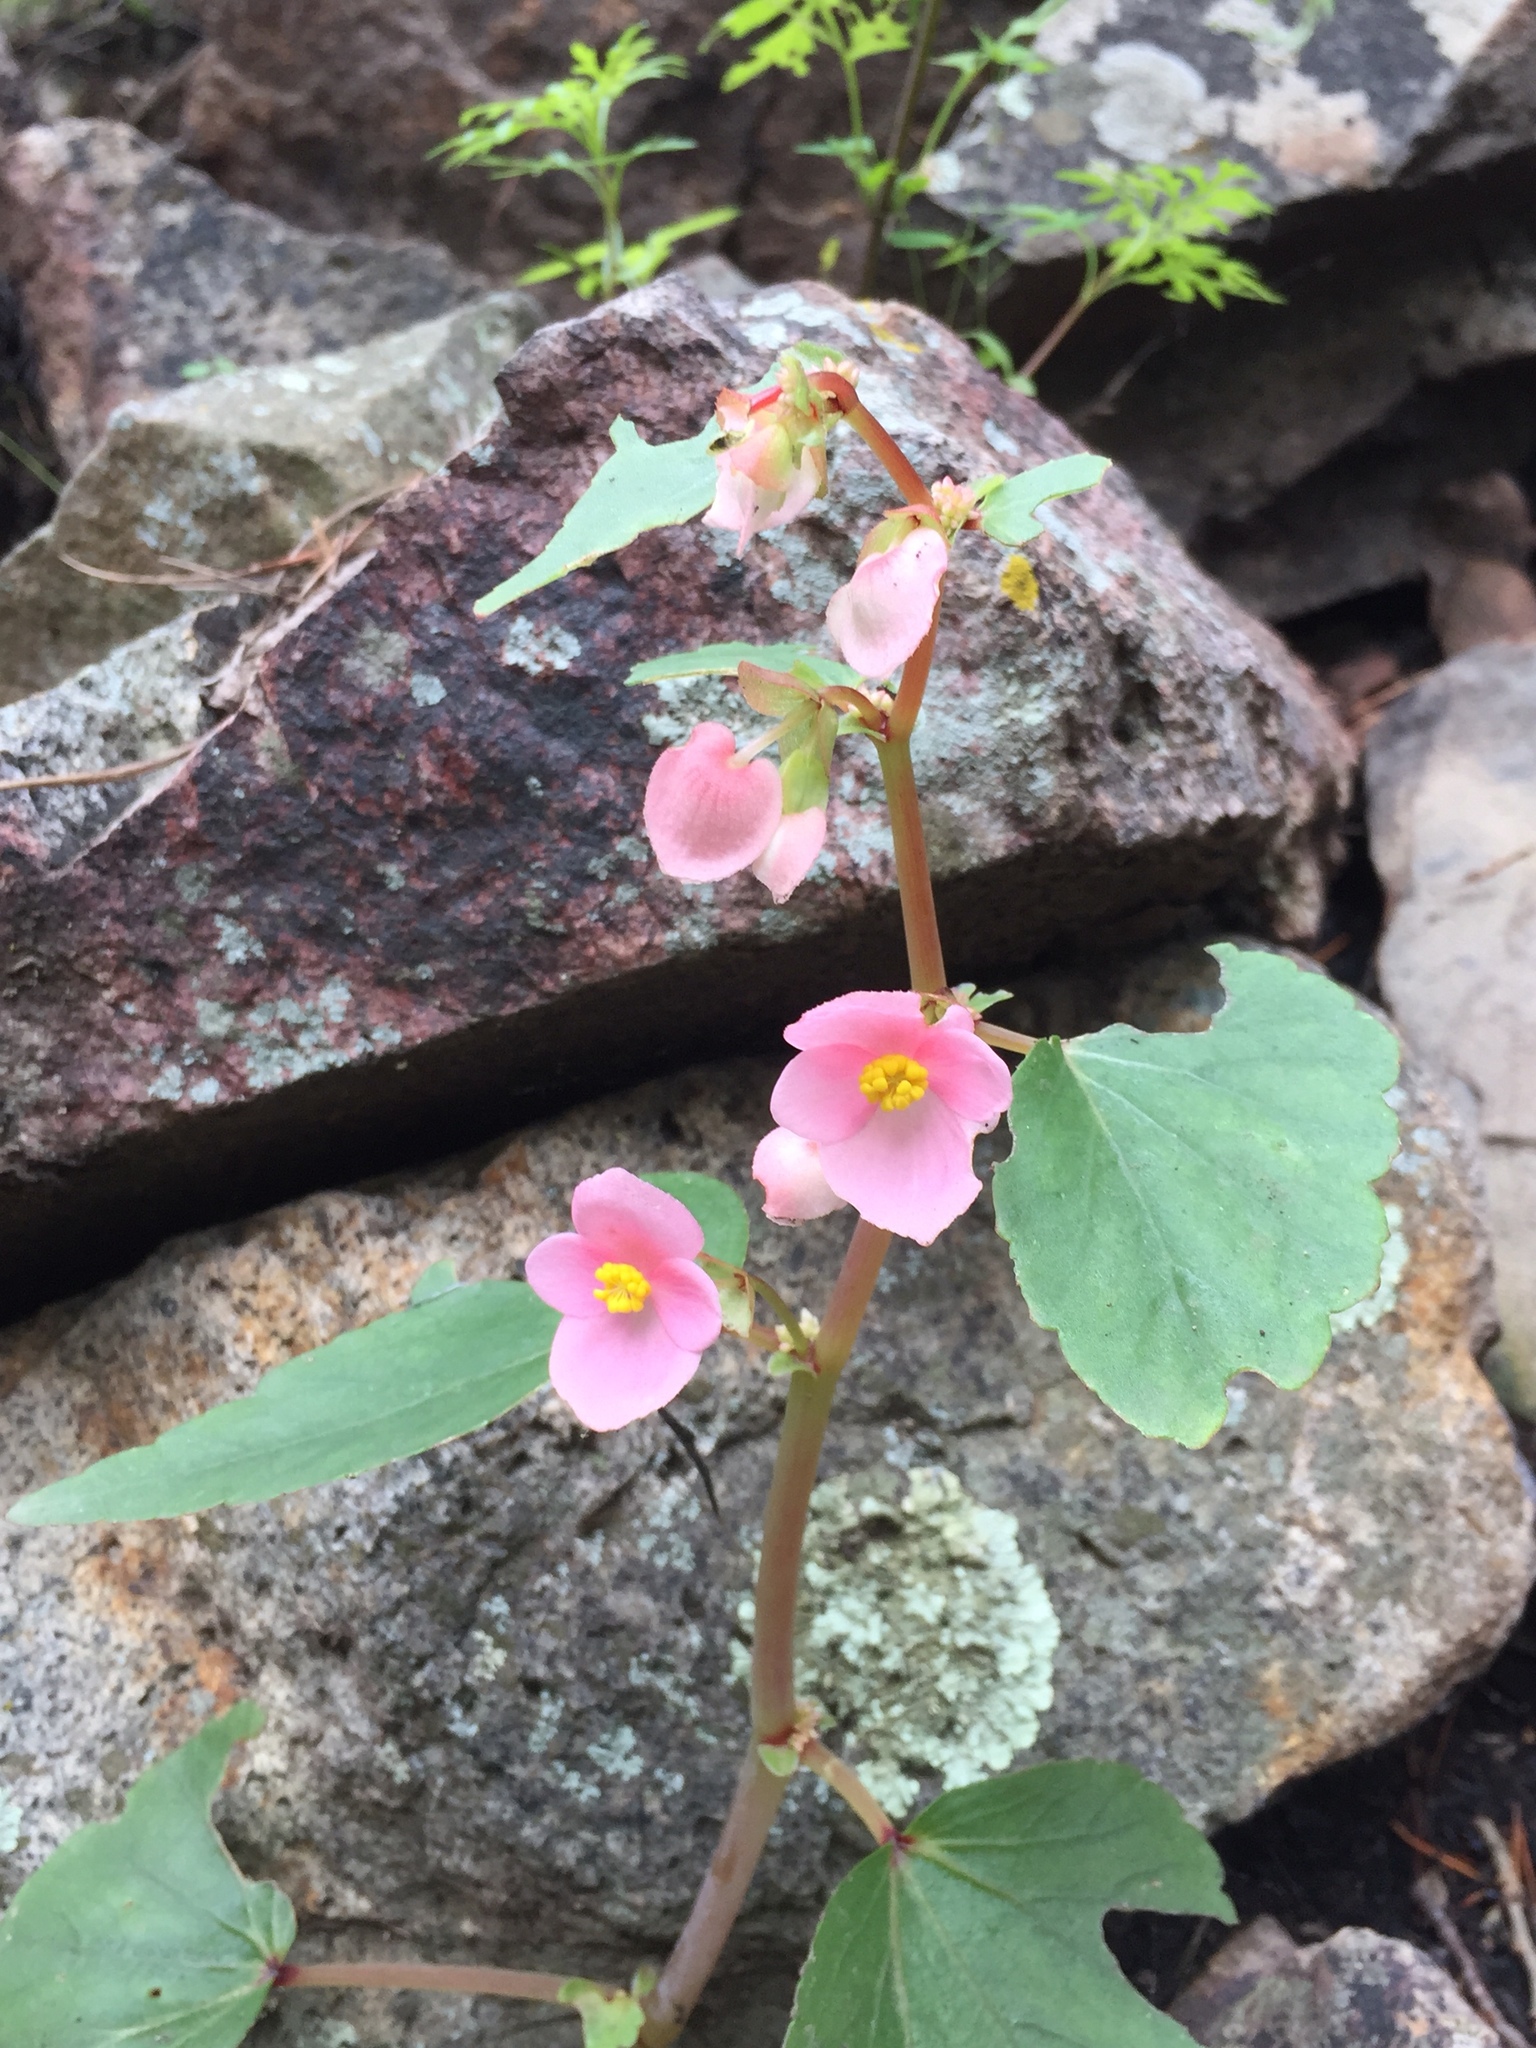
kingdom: Plantae
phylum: Tracheophyta
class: Magnoliopsida
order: Cucurbitales
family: Begoniaceae
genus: Begonia
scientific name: Begonia gracilis
